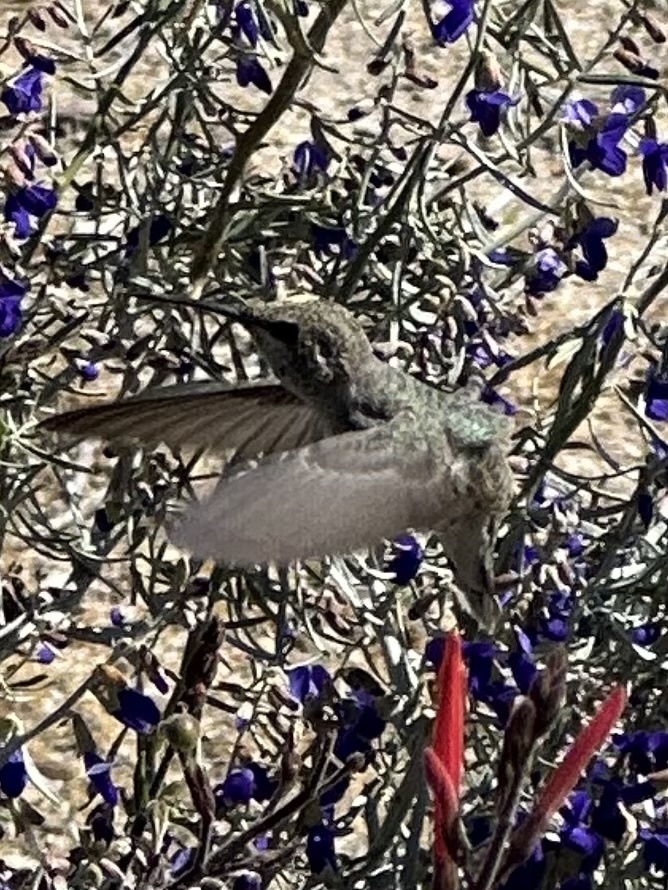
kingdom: Animalia
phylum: Chordata
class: Aves
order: Apodiformes
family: Trochilidae
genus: Calypte
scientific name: Calypte costae
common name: Costa's hummingbird
